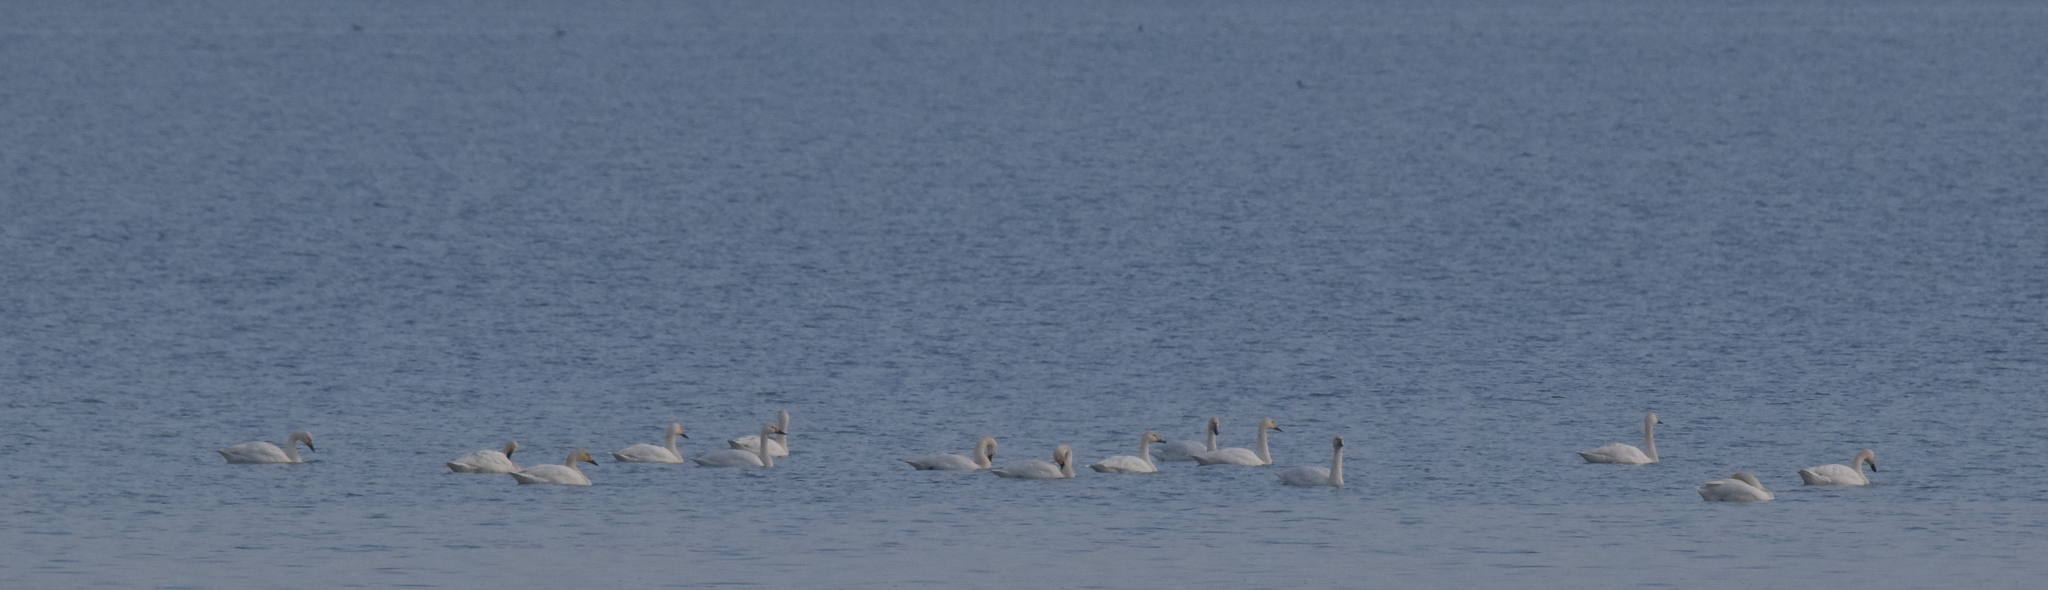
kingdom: Animalia
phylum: Chordata
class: Aves
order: Anseriformes
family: Anatidae
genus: Cygnus
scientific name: Cygnus columbianus
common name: Tundra swan
